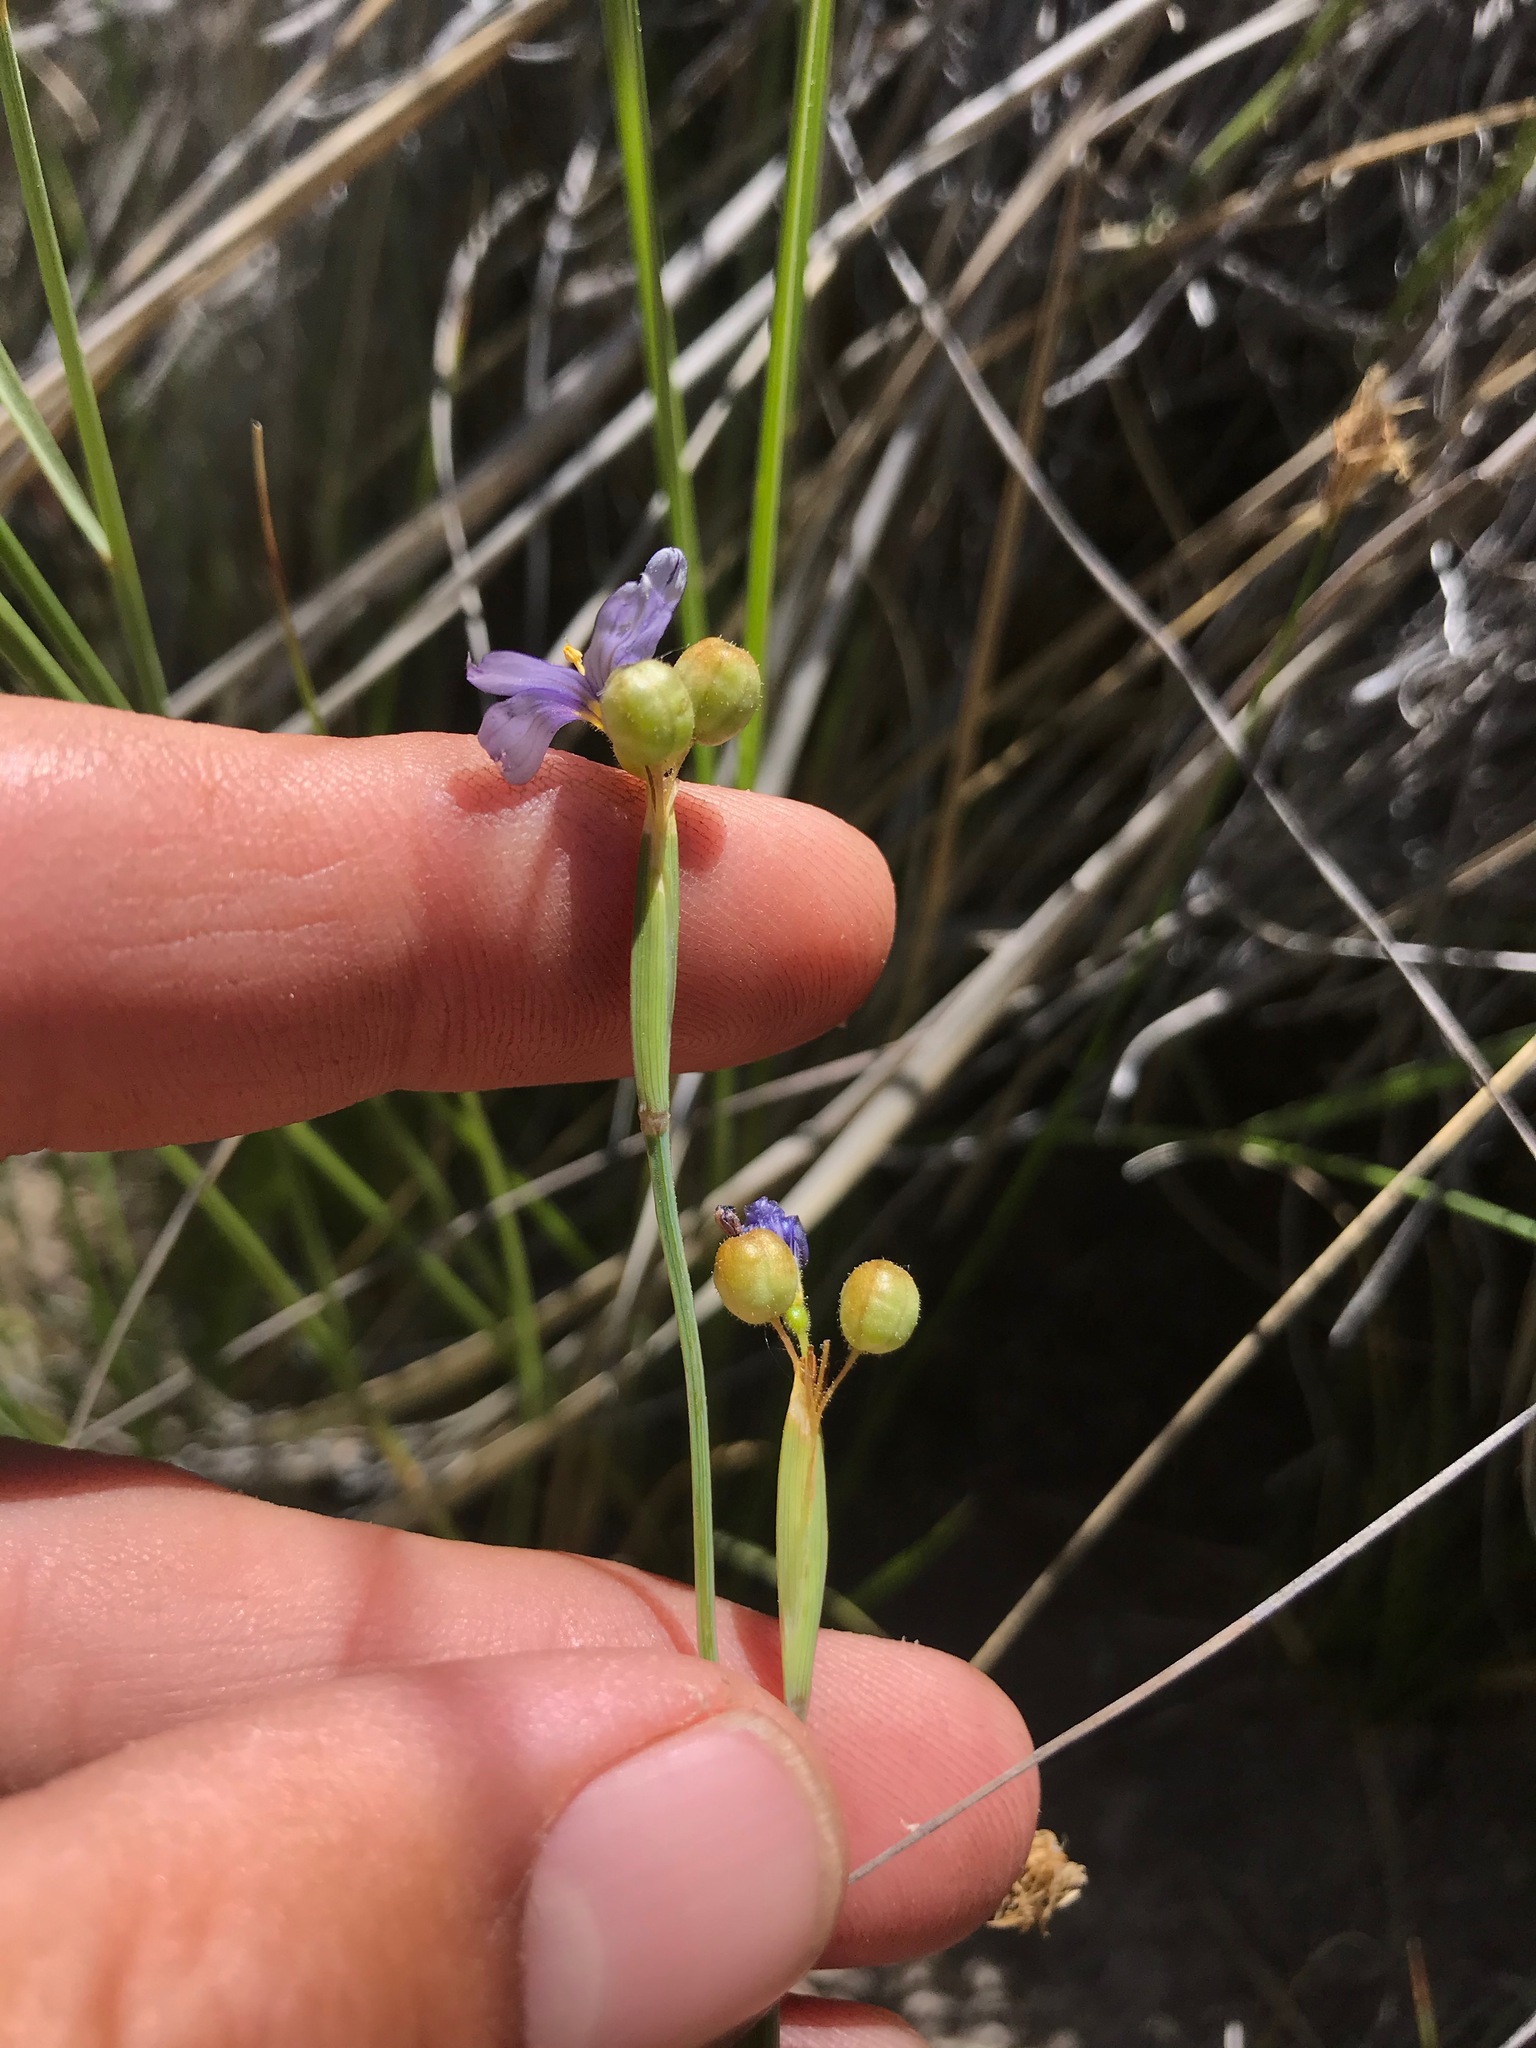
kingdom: Plantae
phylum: Tracheophyta
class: Liliopsida
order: Asparagales
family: Iridaceae
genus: Sisyrinchium
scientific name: Sisyrinchium bellum
